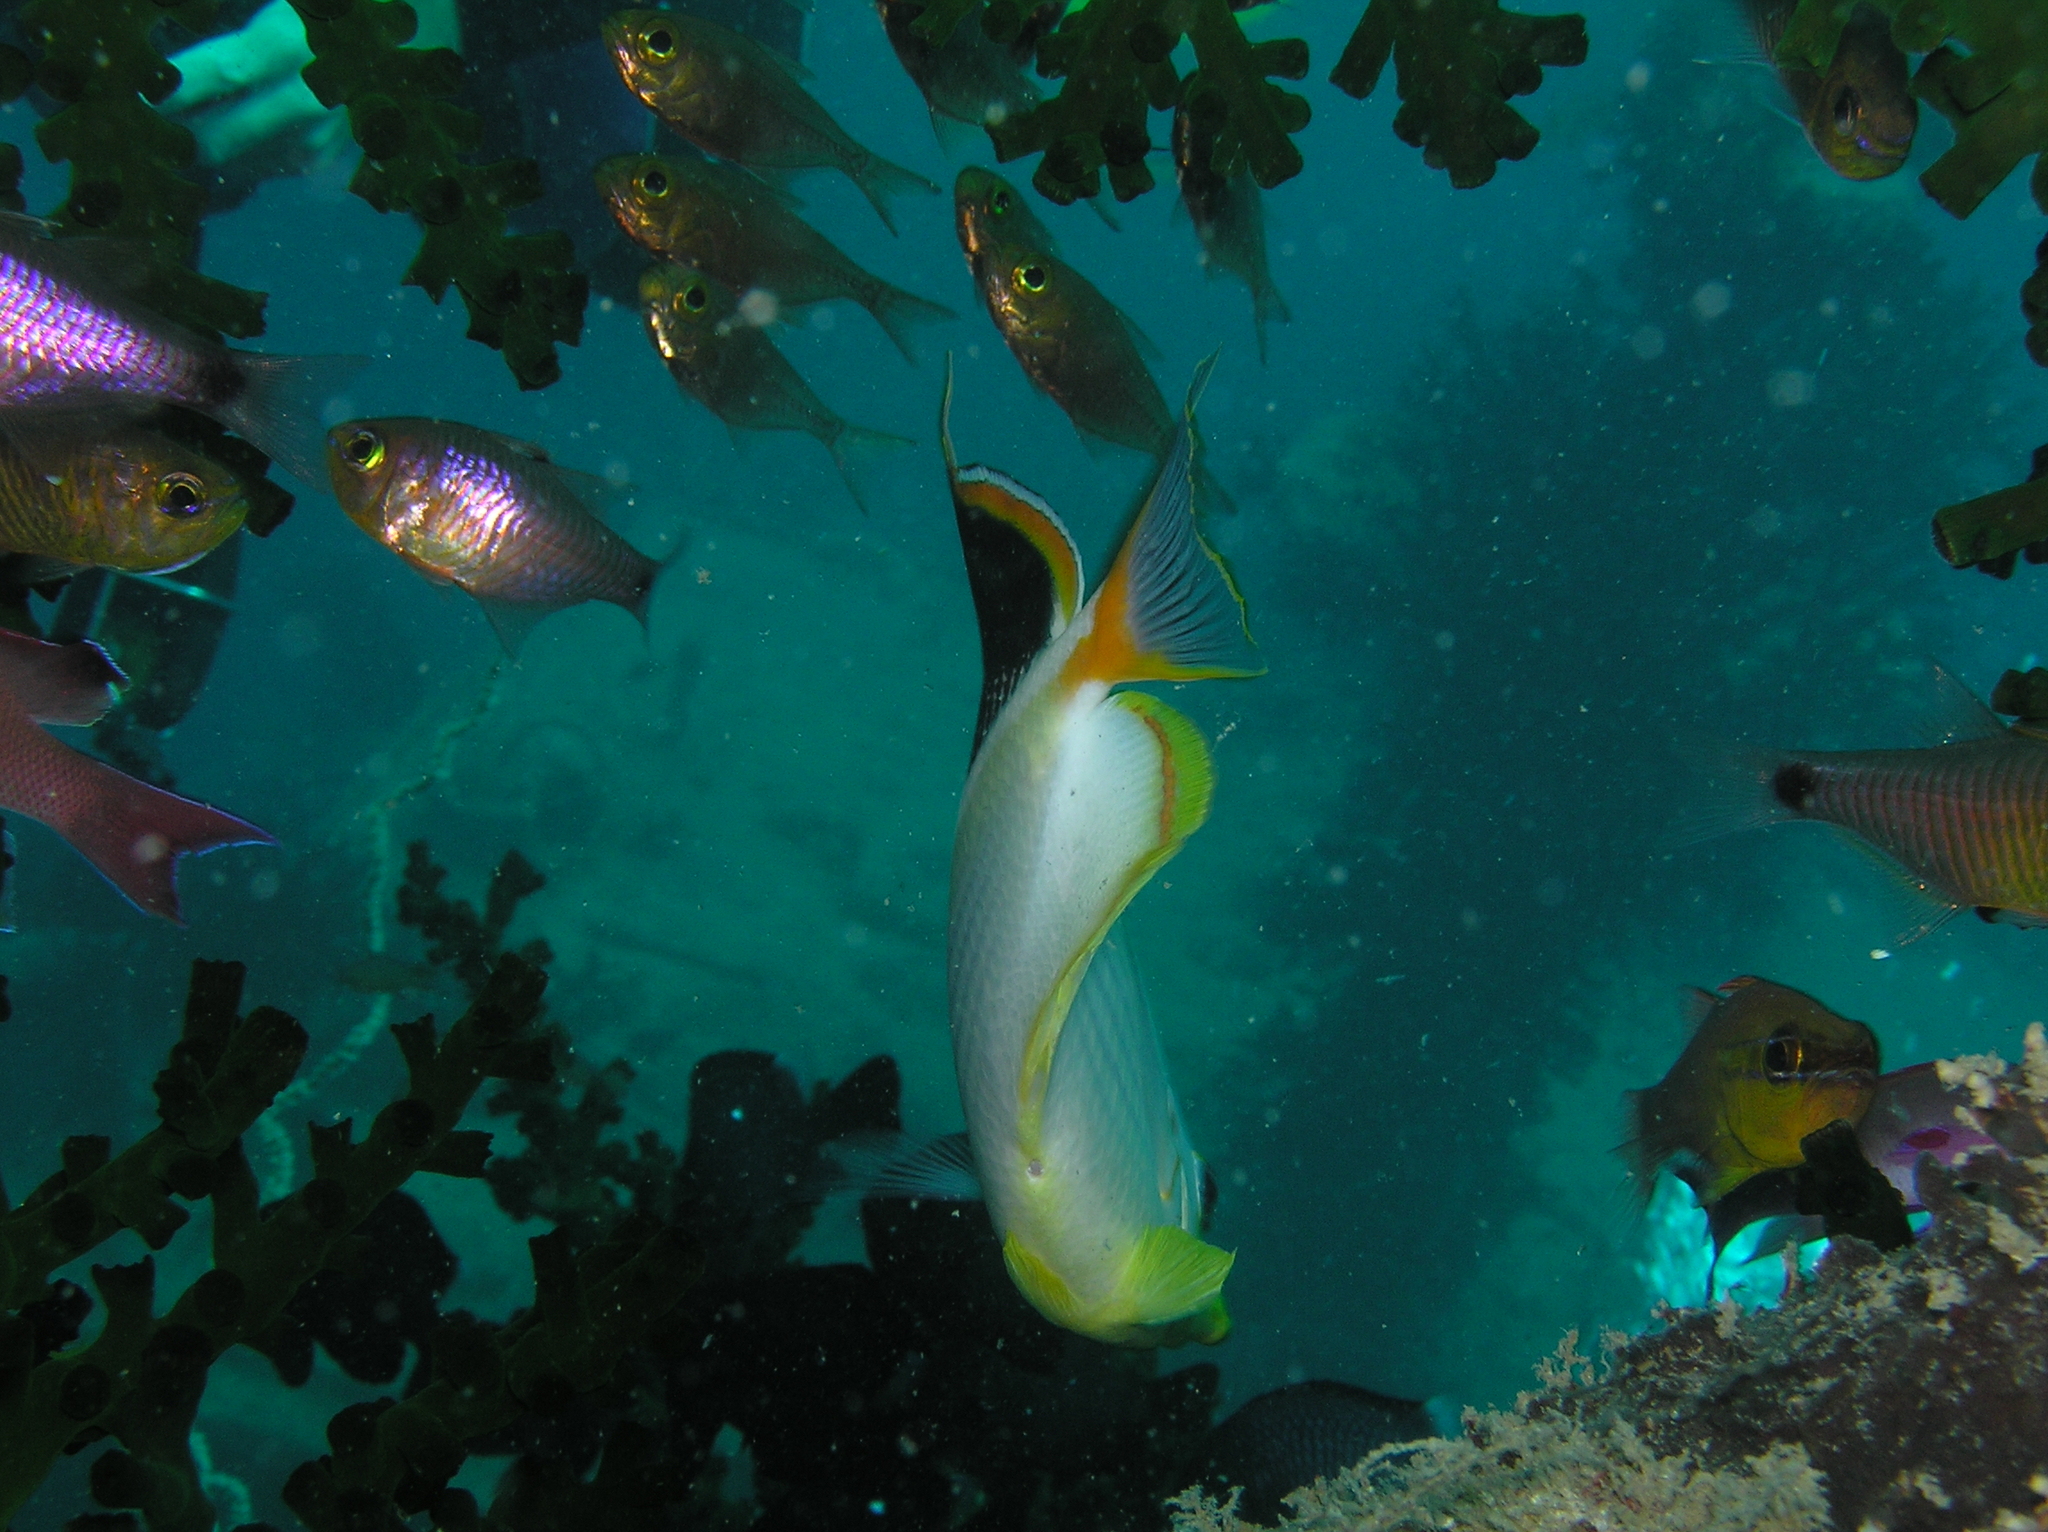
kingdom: Animalia
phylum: Chordata
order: Perciformes
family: Chaetodontidae
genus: Chaetodon
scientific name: Chaetodon ephippium
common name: Saddled butterflyfish
